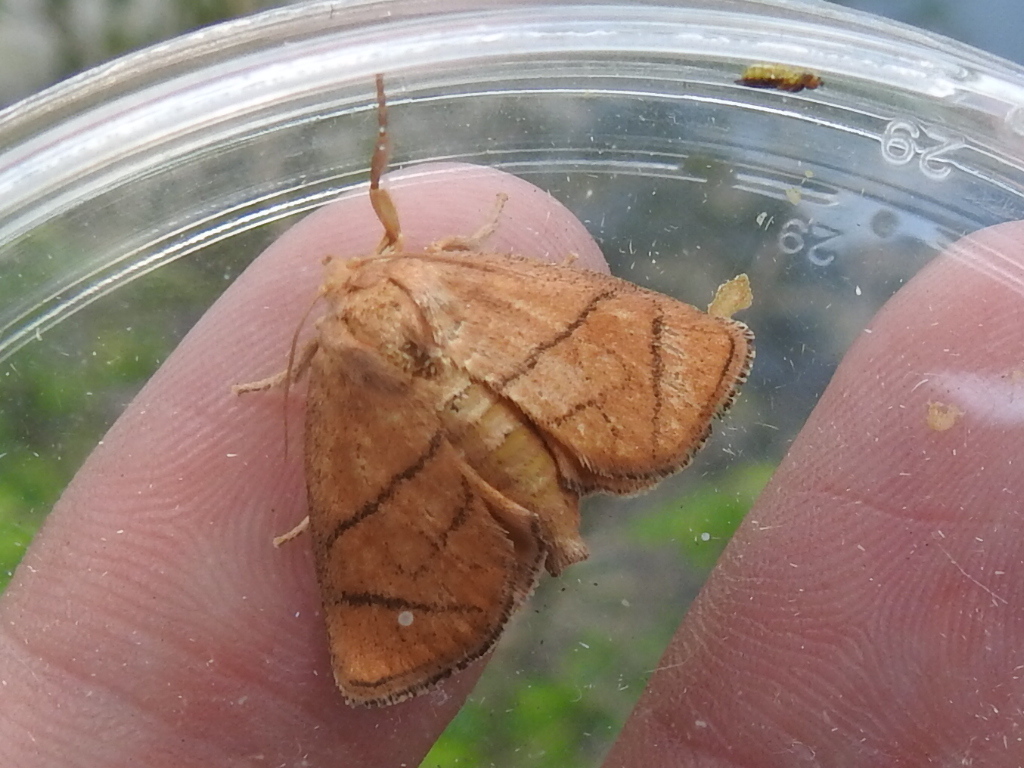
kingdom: Animalia
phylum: Arthropoda
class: Insecta
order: Lepidoptera
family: Limacodidae
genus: Apoda
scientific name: Apoda y-inversa
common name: Yellow-collared slug moth
